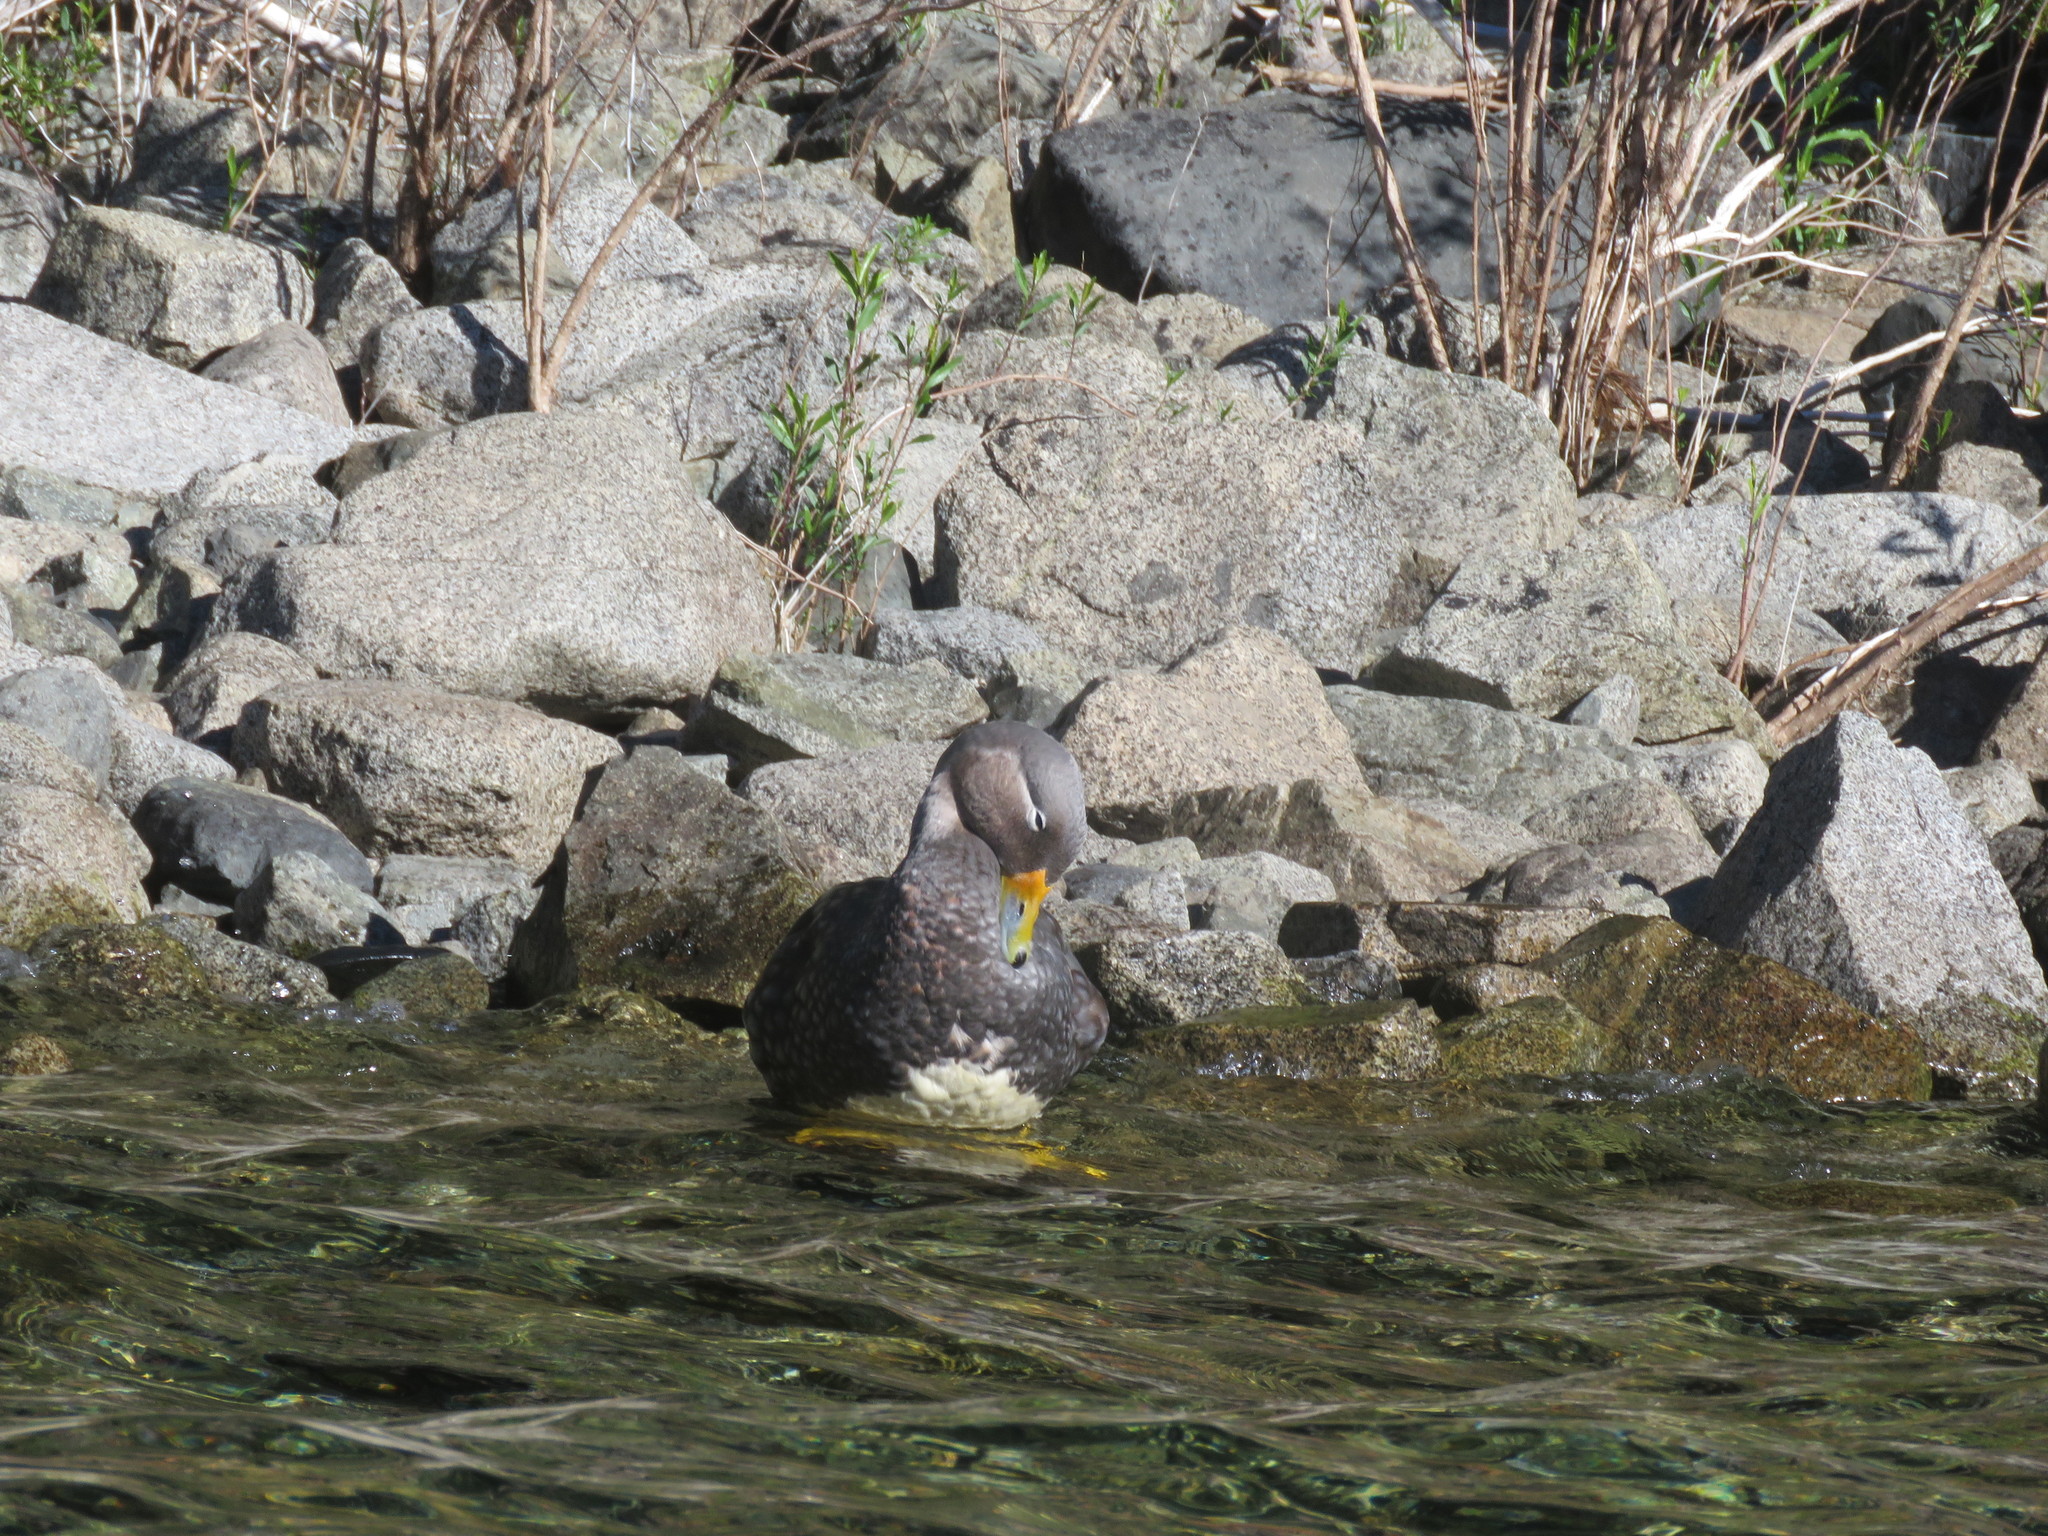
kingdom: Animalia
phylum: Chordata
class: Aves
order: Anseriformes
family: Anatidae
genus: Tachyeres
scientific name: Tachyeres patachonicus
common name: Flying steamer duck
